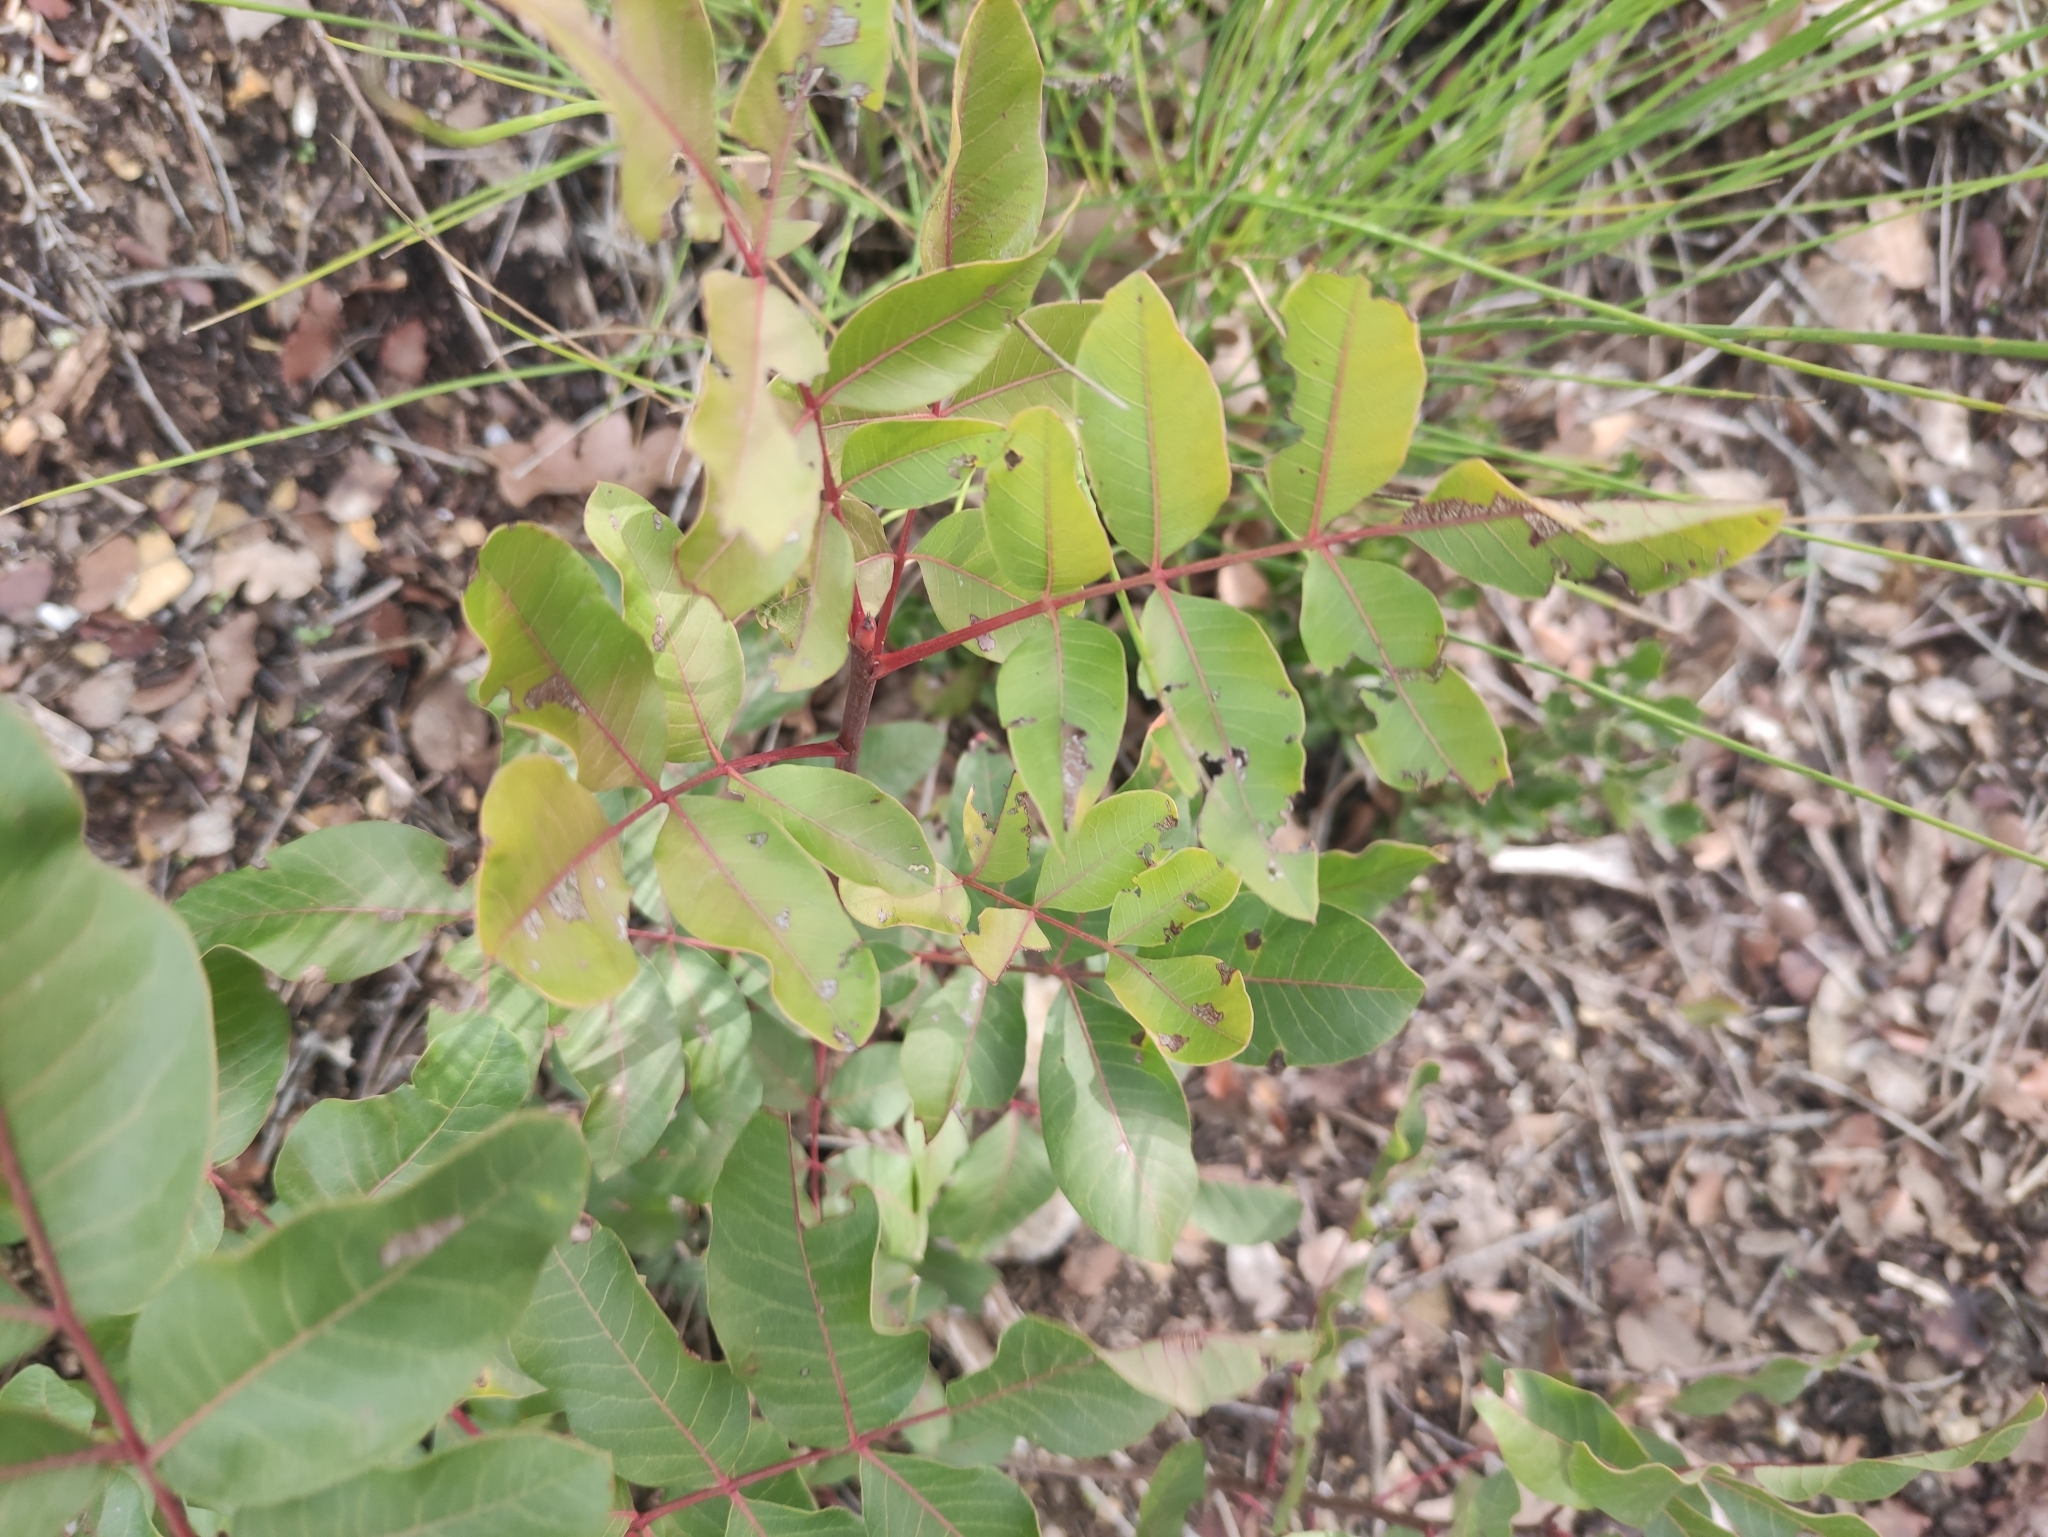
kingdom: Plantae
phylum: Tracheophyta
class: Magnoliopsida
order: Sapindales
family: Anacardiaceae
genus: Pistacia
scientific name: Pistacia terebinthus
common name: Terebinth
